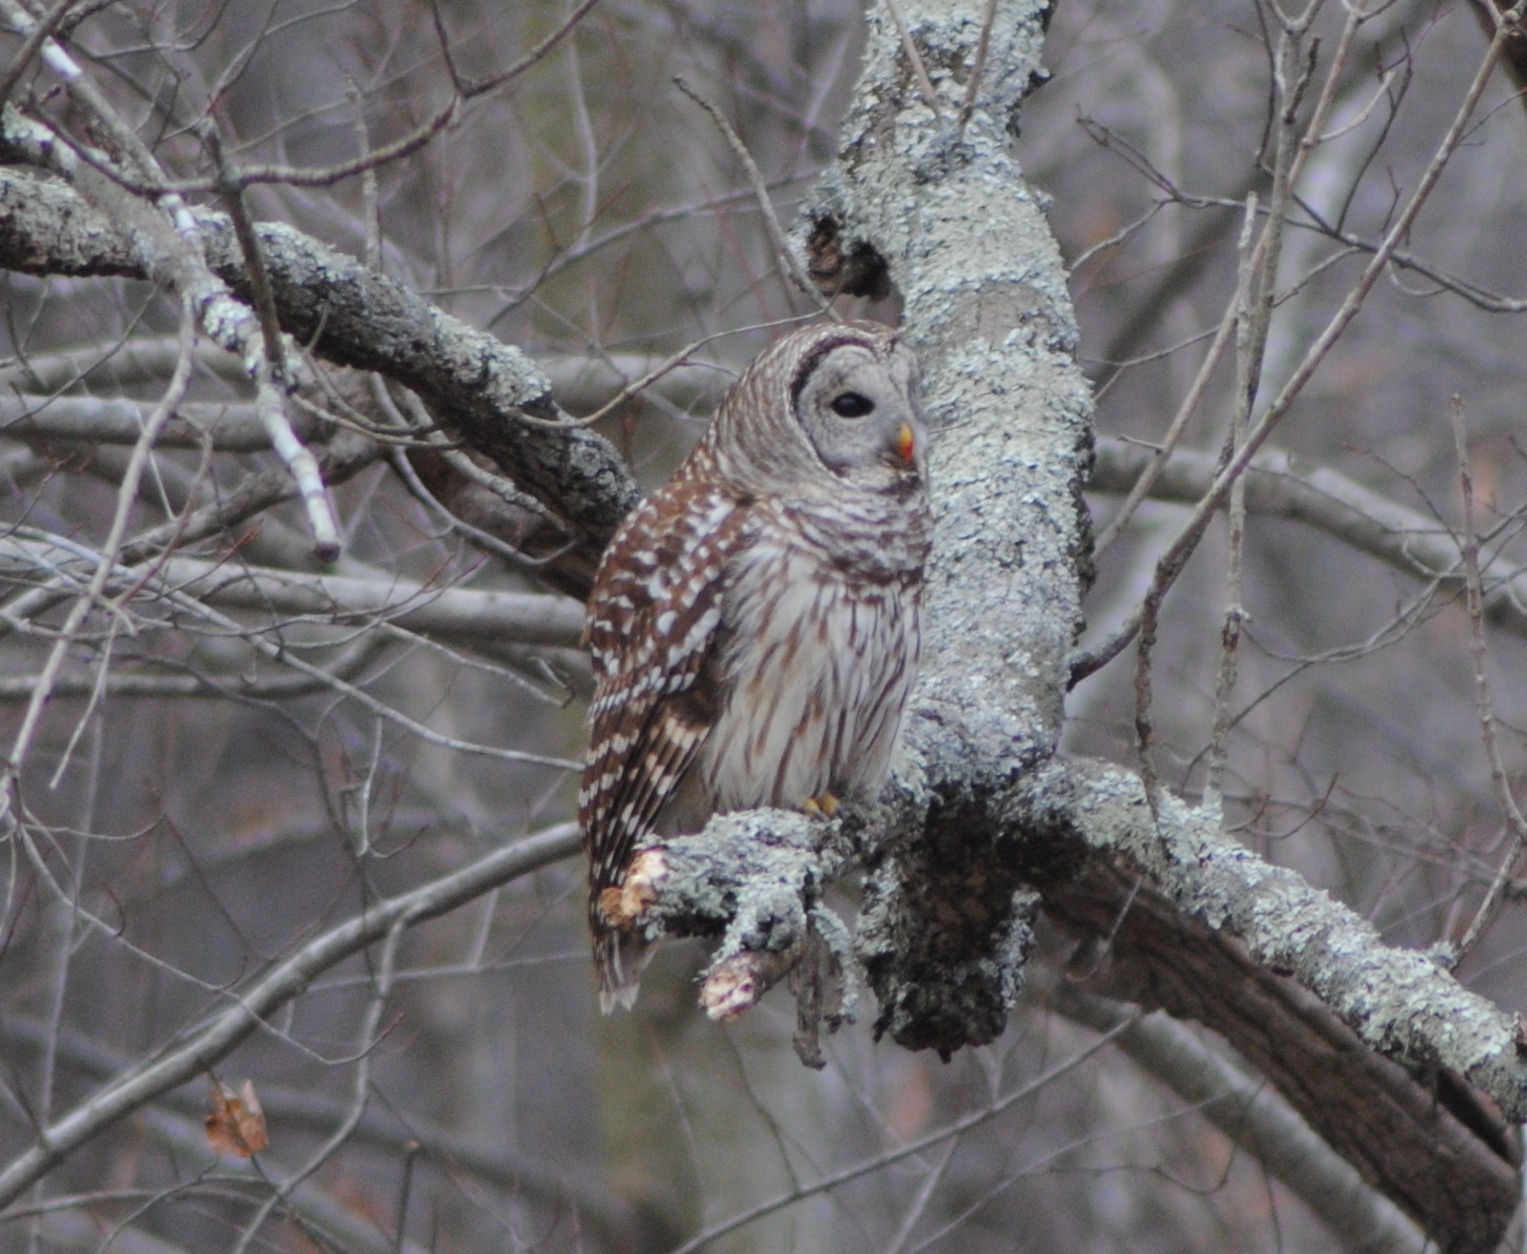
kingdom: Animalia
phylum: Chordata
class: Aves
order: Strigiformes
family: Strigidae
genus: Strix
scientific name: Strix varia
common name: Barred owl
